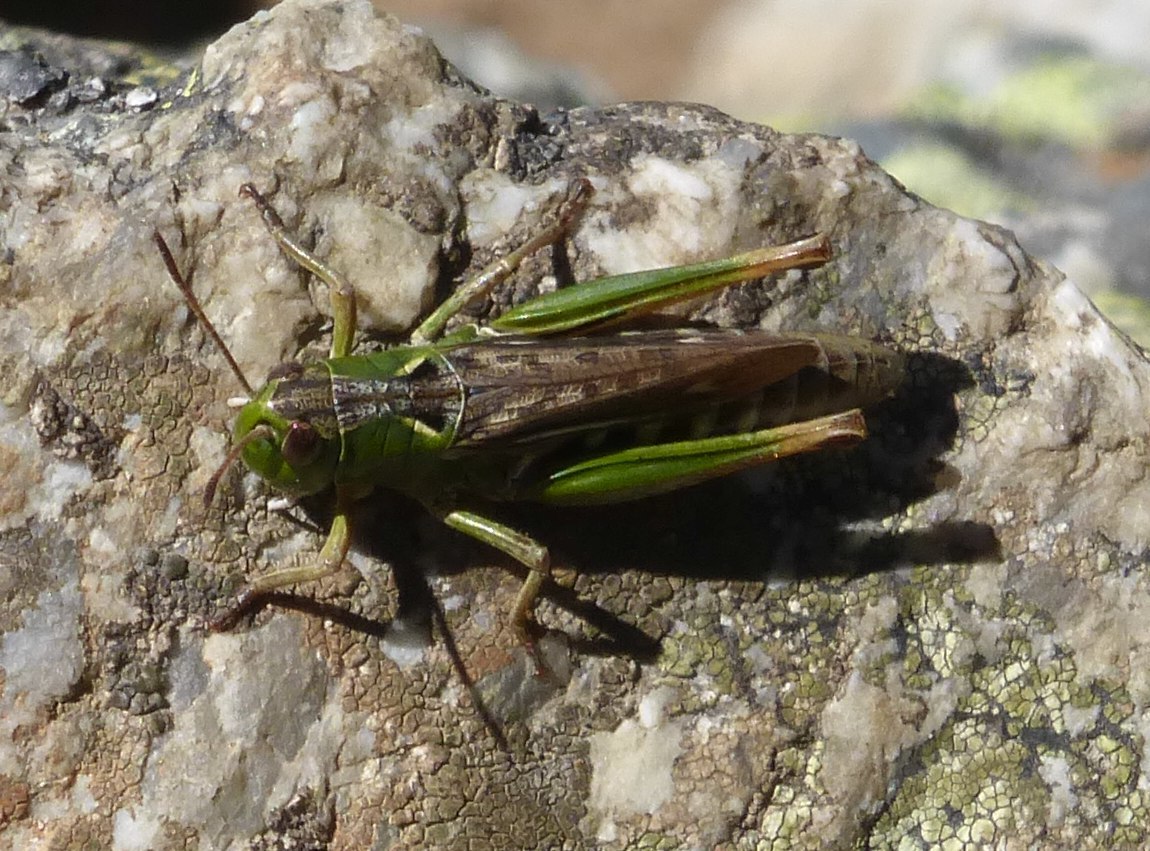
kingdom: Animalia
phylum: Arthropoda
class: Insecta
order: Orthoptera
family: Acrididae
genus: Gomphocerus
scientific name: Gomphocerus sibiricus
